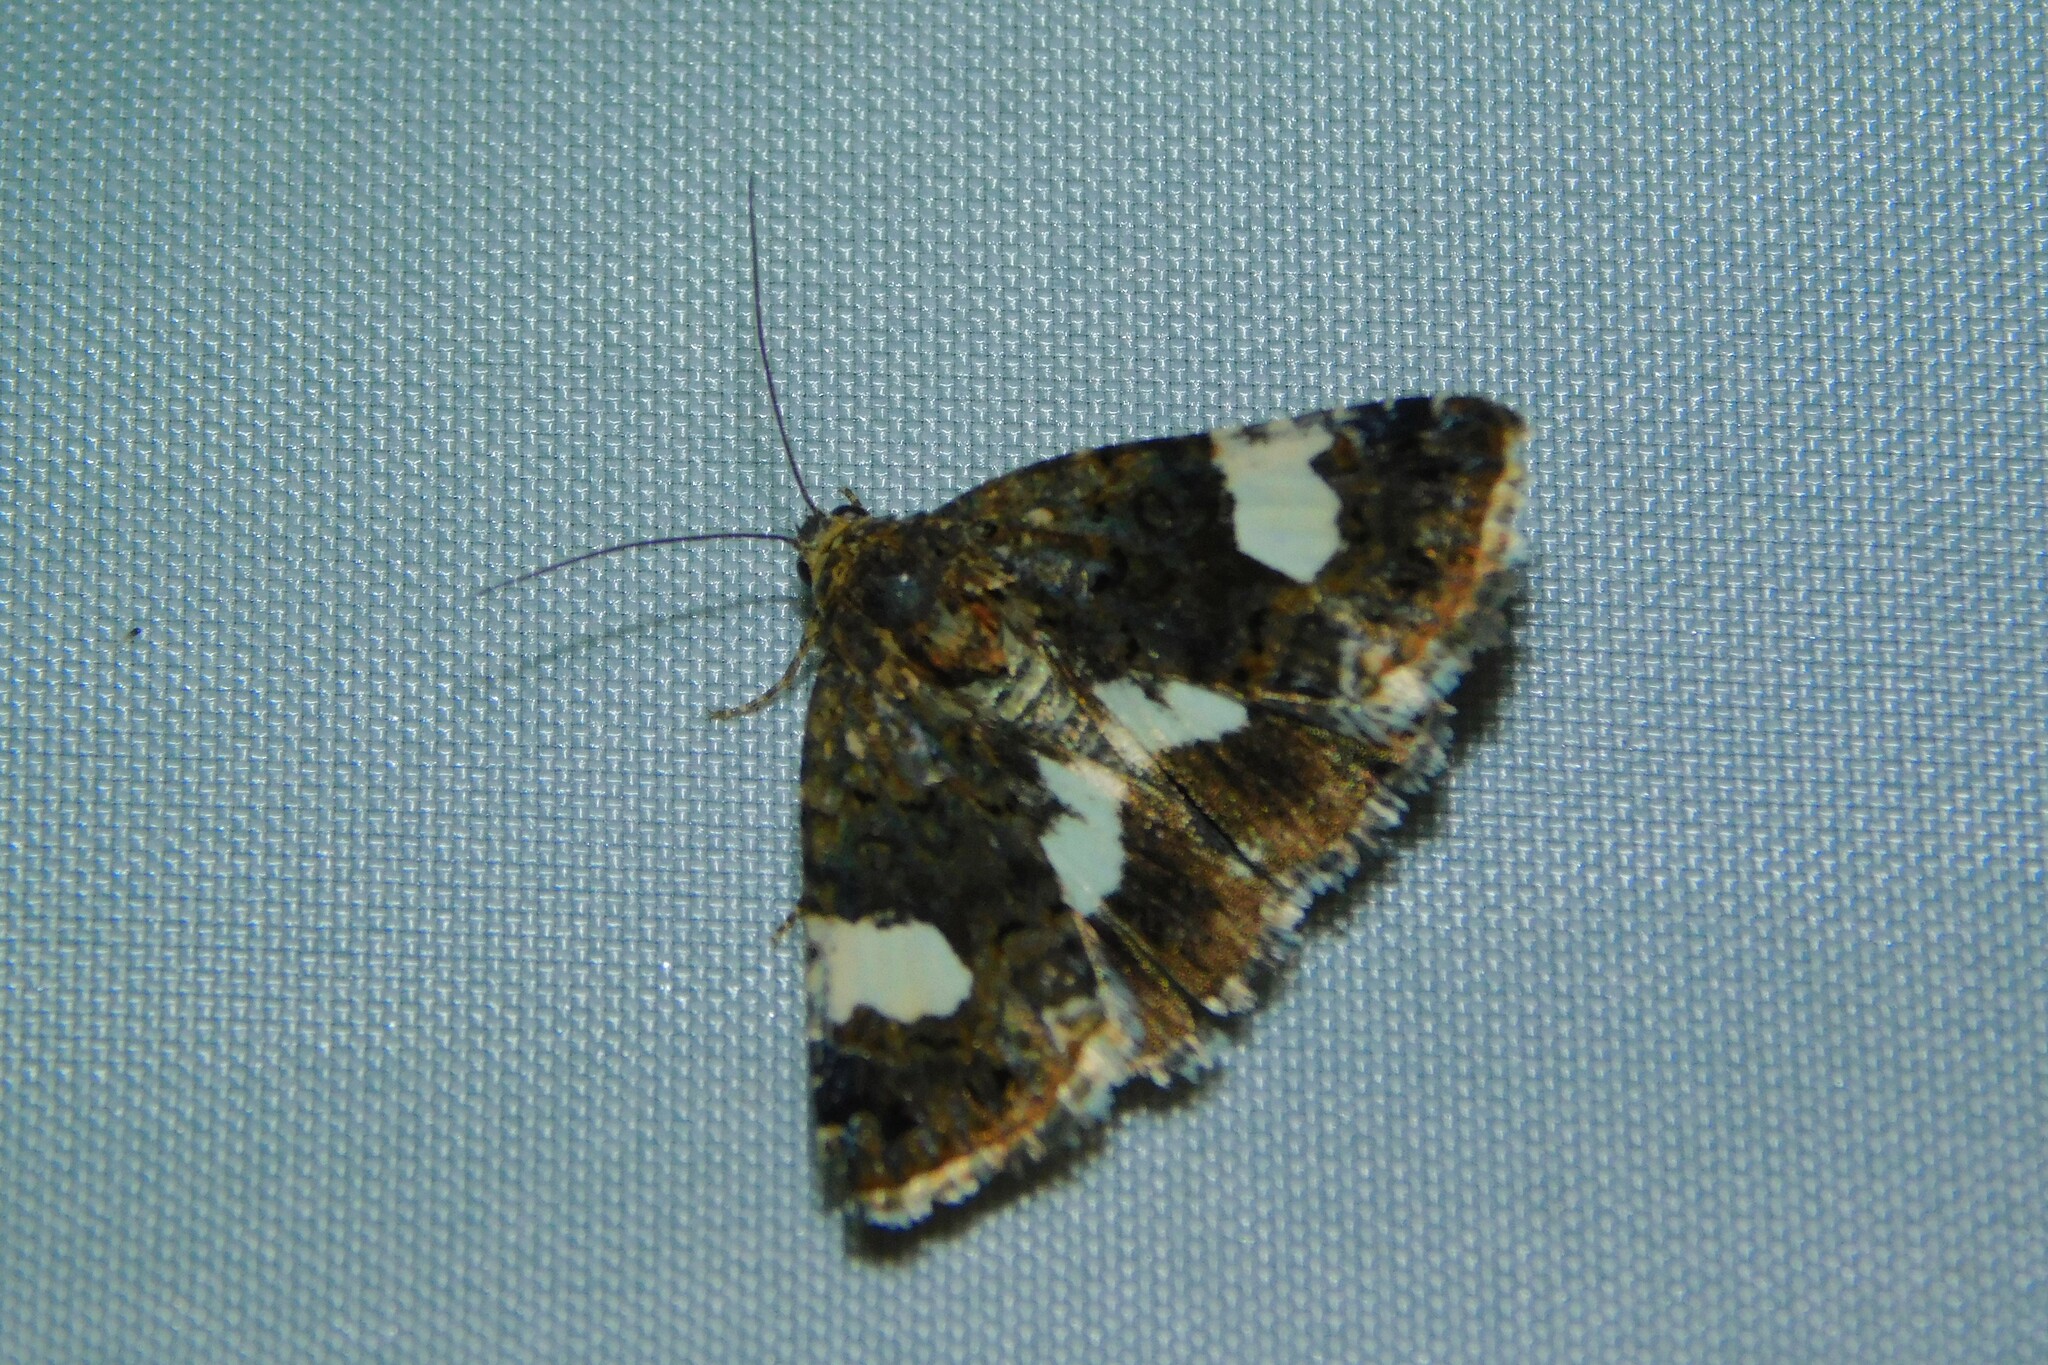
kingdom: Animalia
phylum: Arthropoda
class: Insecta
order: Lepidoptera
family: Erebidae
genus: Tyta
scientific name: Tyta luctuosa
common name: Four-spotted
